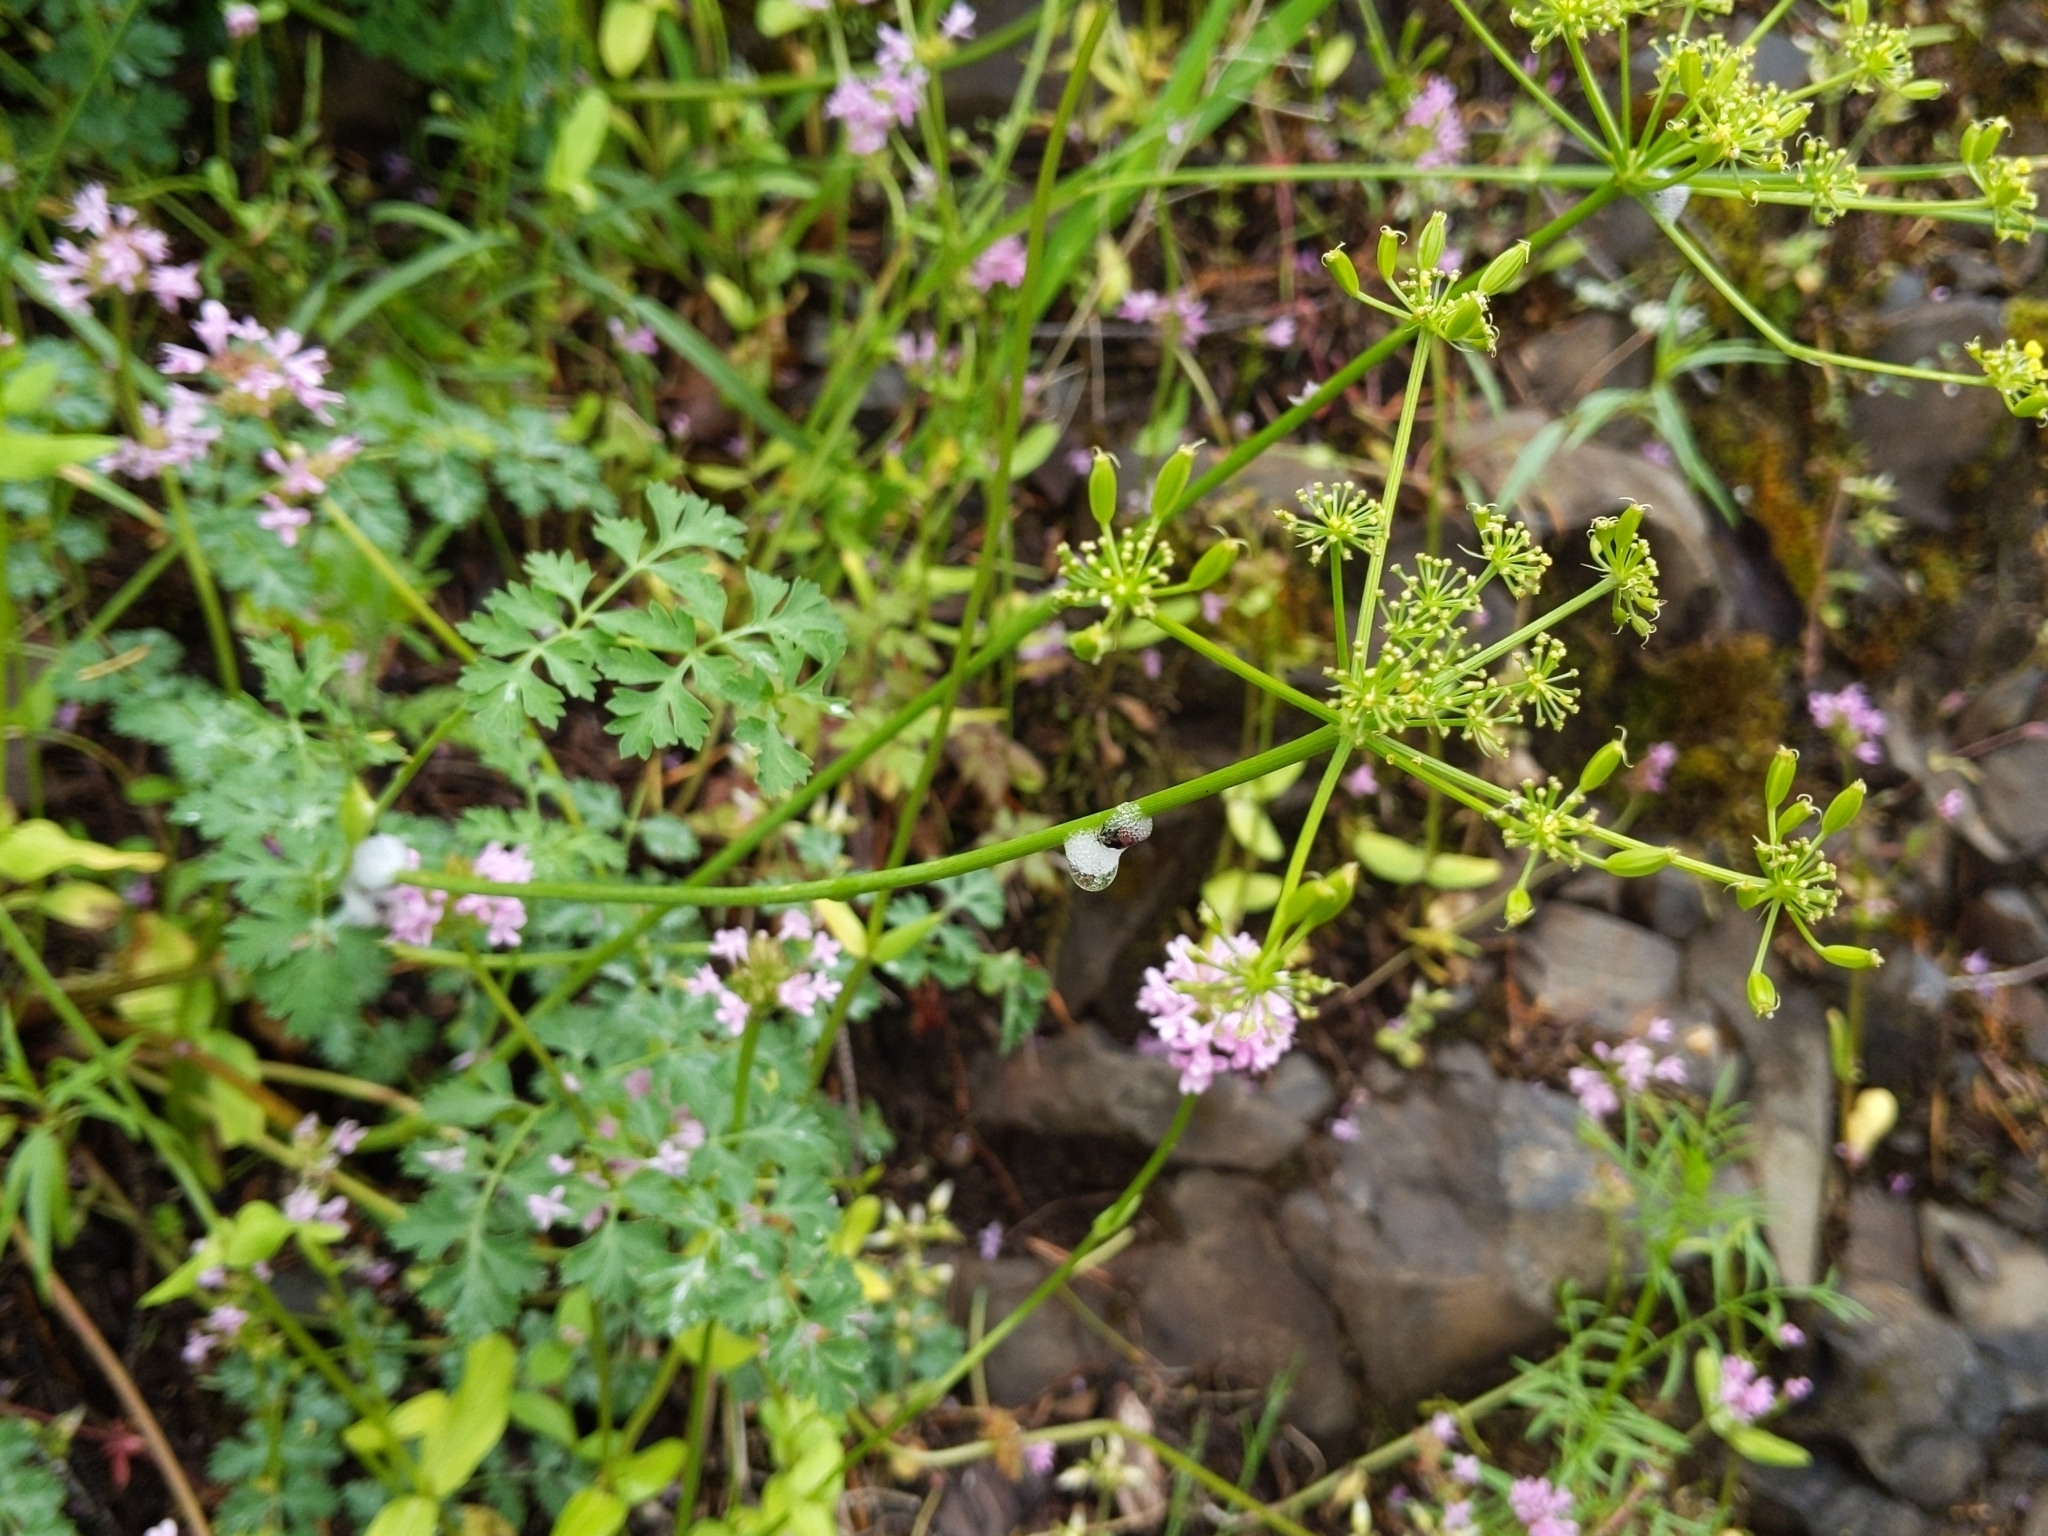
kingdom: Plantae
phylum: Tracheophyta
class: Magnoliopsida
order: Apiales
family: Apiaceae
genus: Lomatium
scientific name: Lomatium martindalei
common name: Cascade desert-parsley
